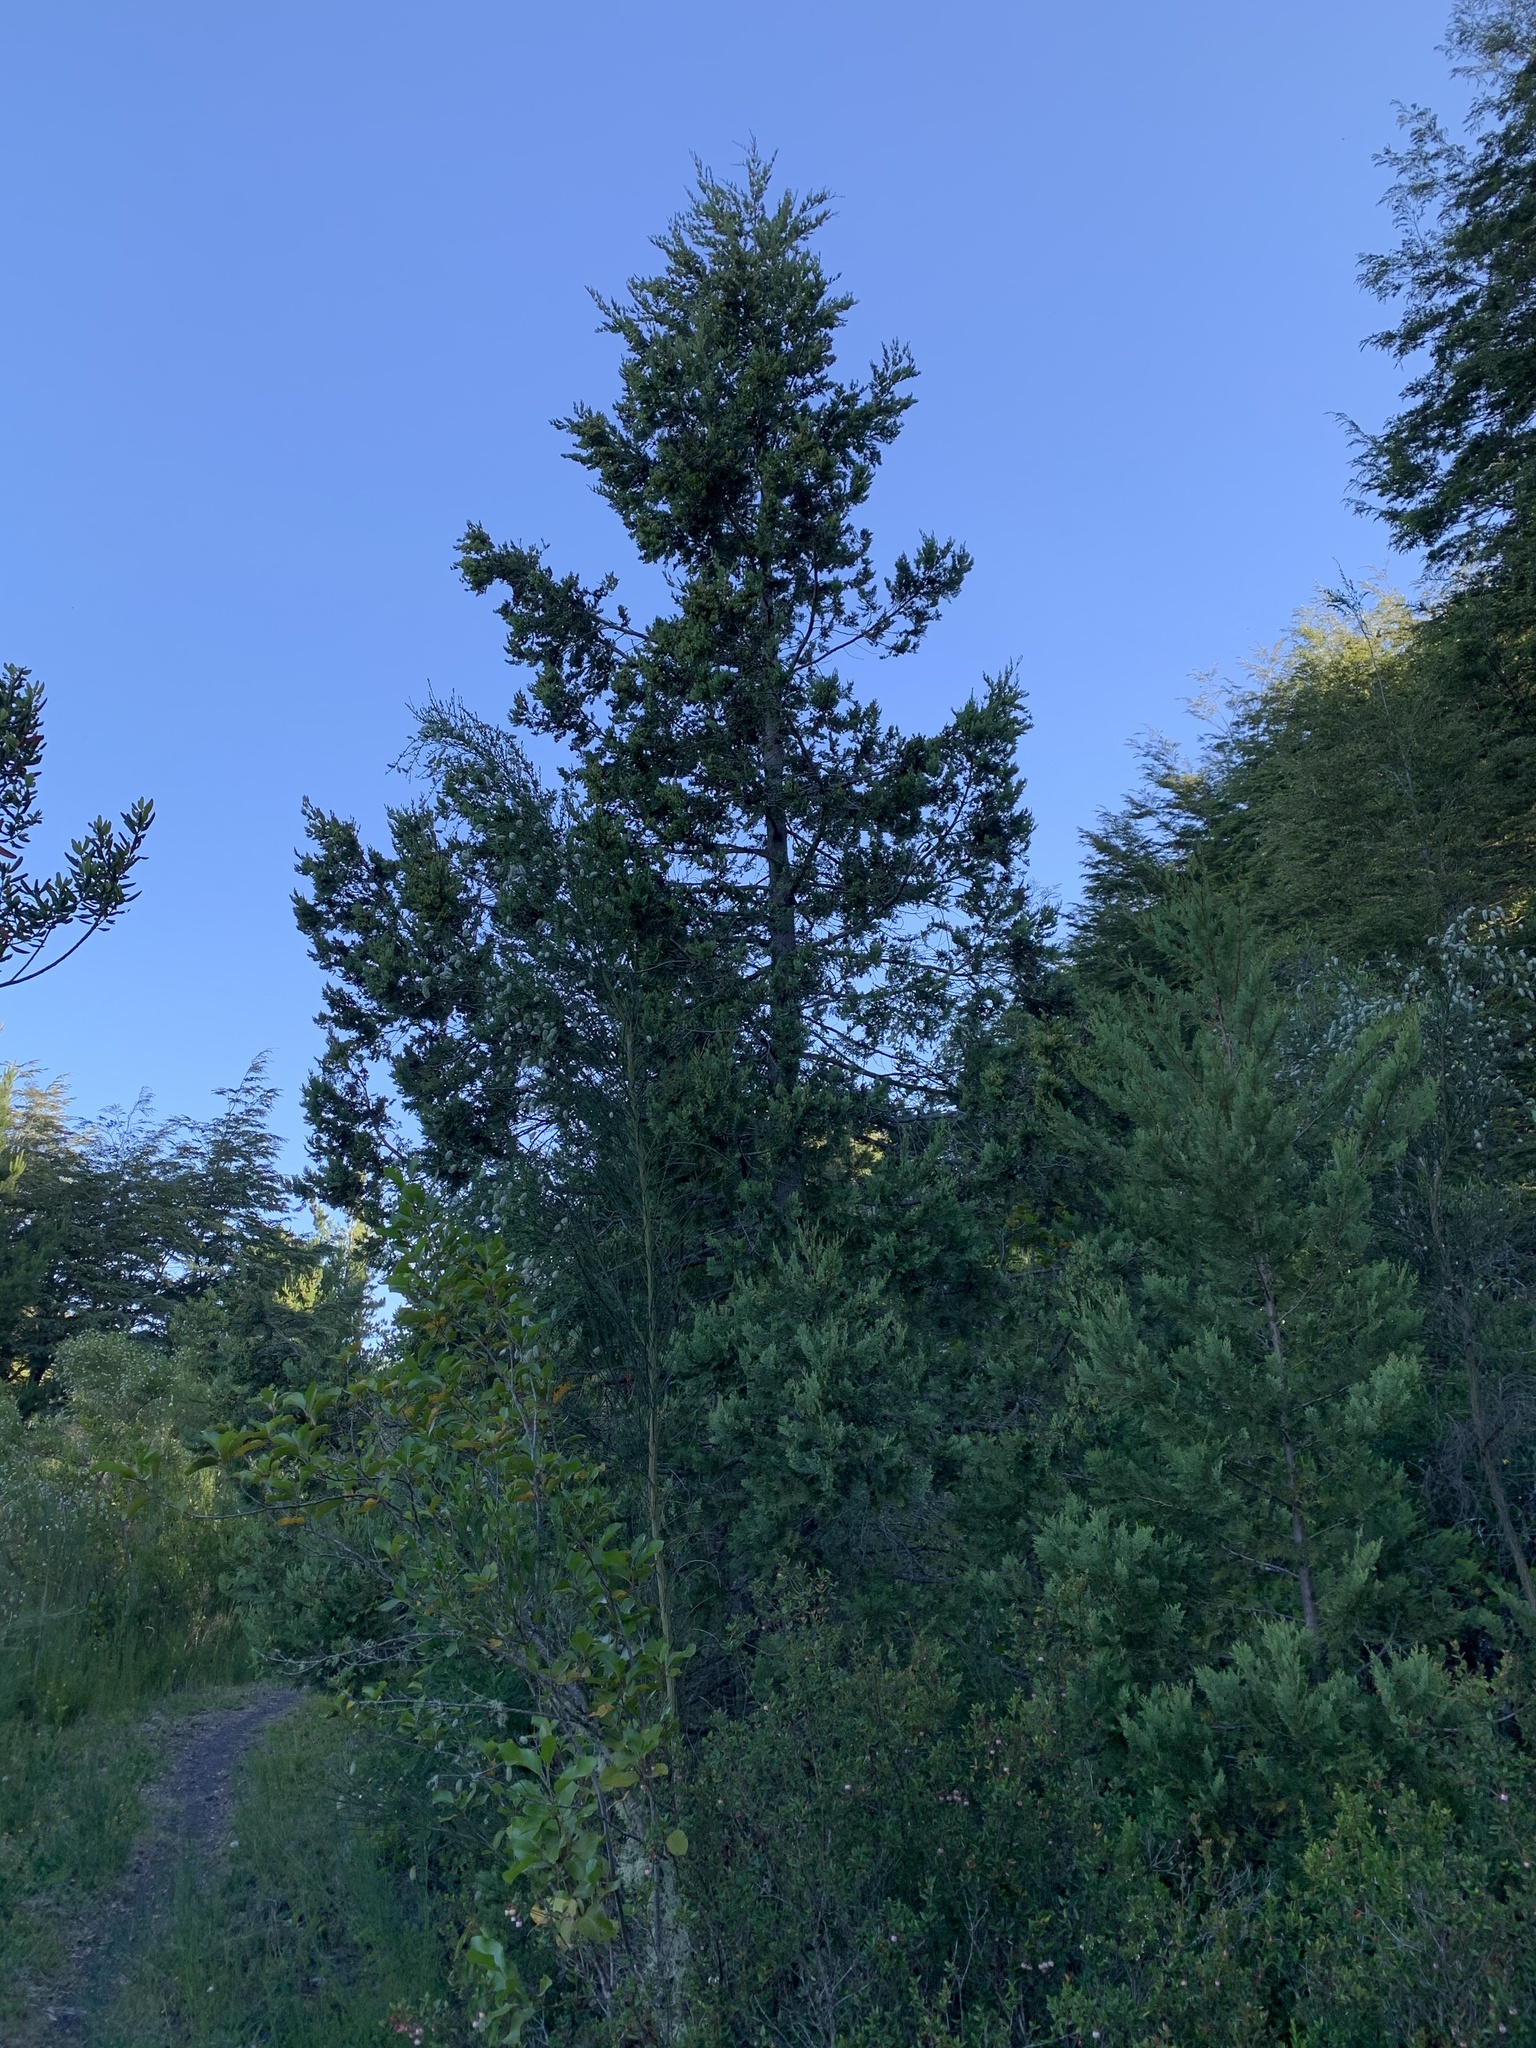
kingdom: Plantae
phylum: Tracheophyta
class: Pinopsida
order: Pinales
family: Cupressaceae
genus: Austrocedrus
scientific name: Austrocedrus chilensis
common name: Chilean incense-cedar
